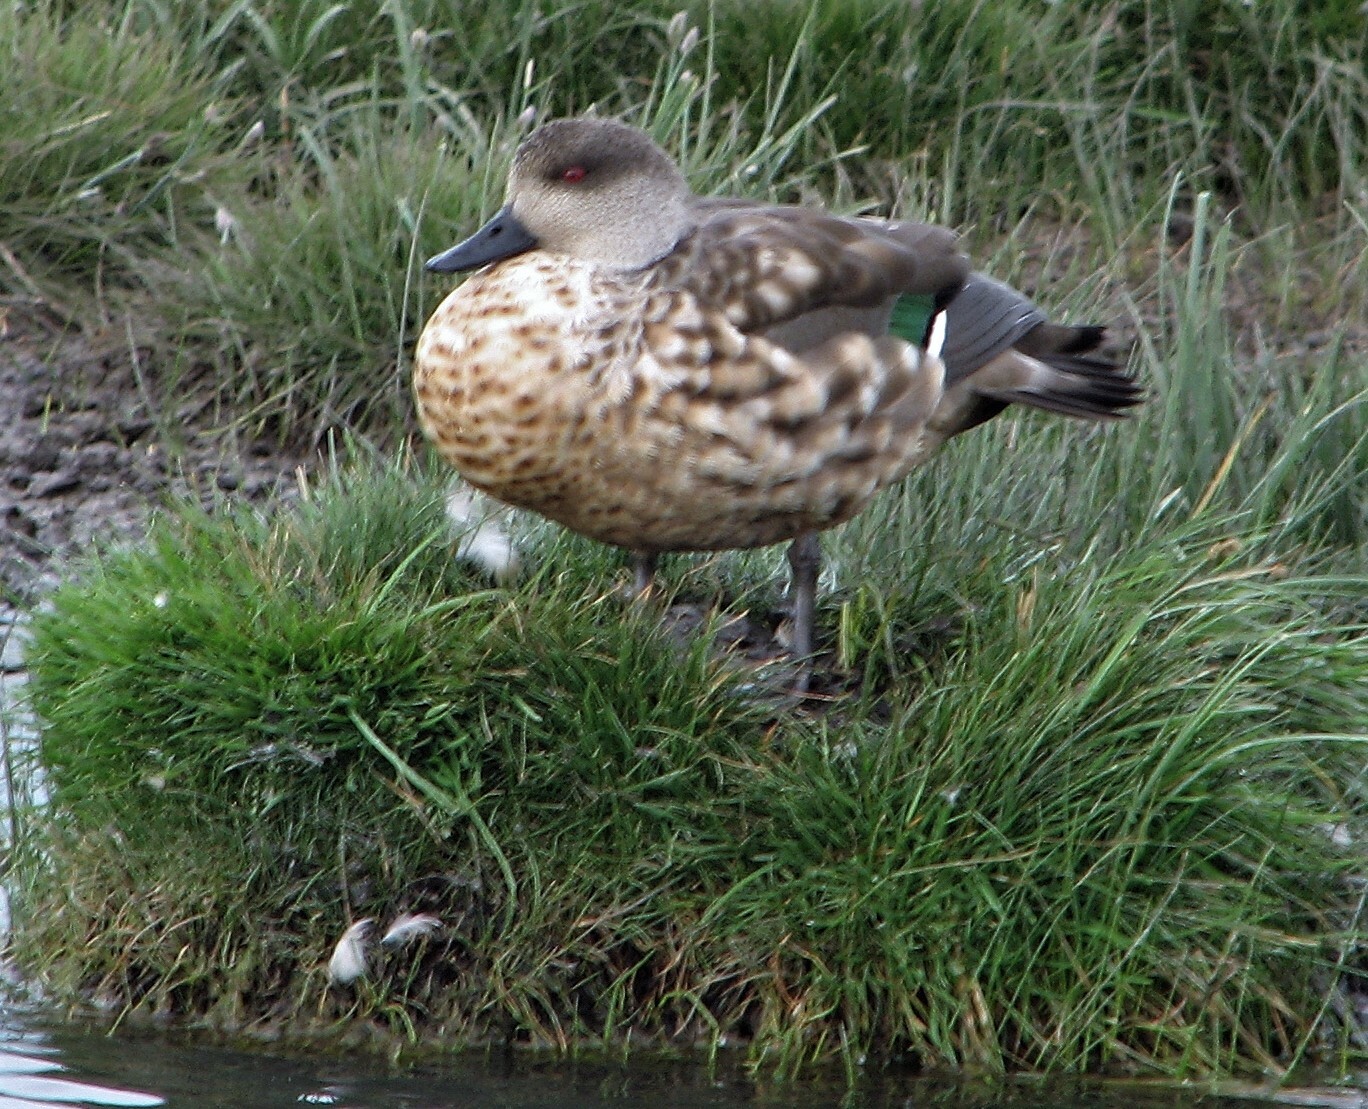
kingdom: Animalia
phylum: Chordata
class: Aves
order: Anseriformes
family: Anatidae
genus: Lophonetta
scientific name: Lophonetta specularioides
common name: Crested duck
